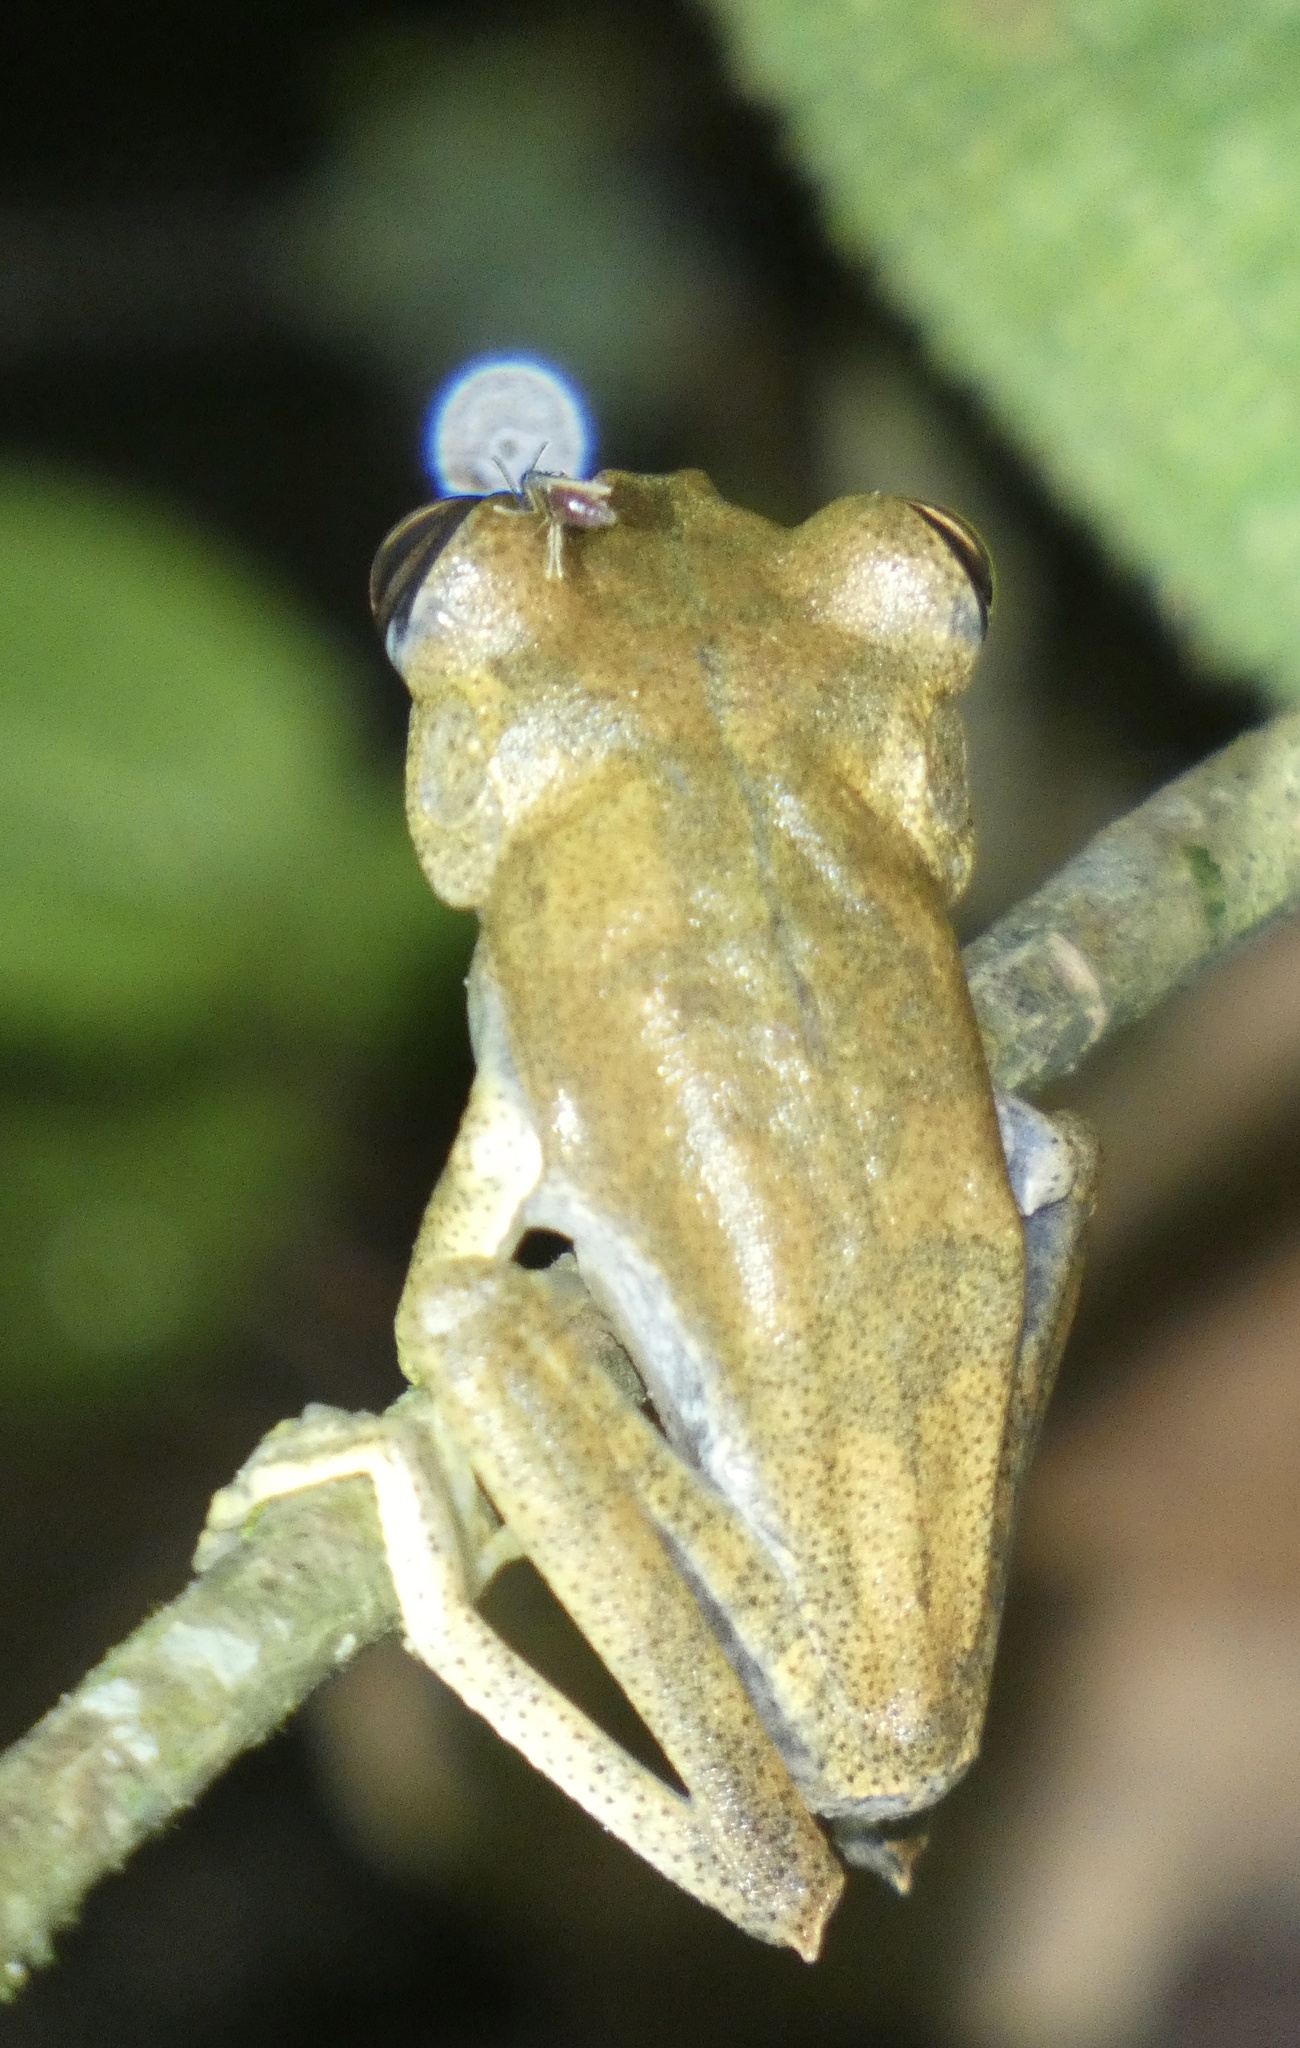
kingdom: Animalia
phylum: Chordata
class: Amphibia
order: Anura
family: Hylidae
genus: Boana
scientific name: Boana semilineata
